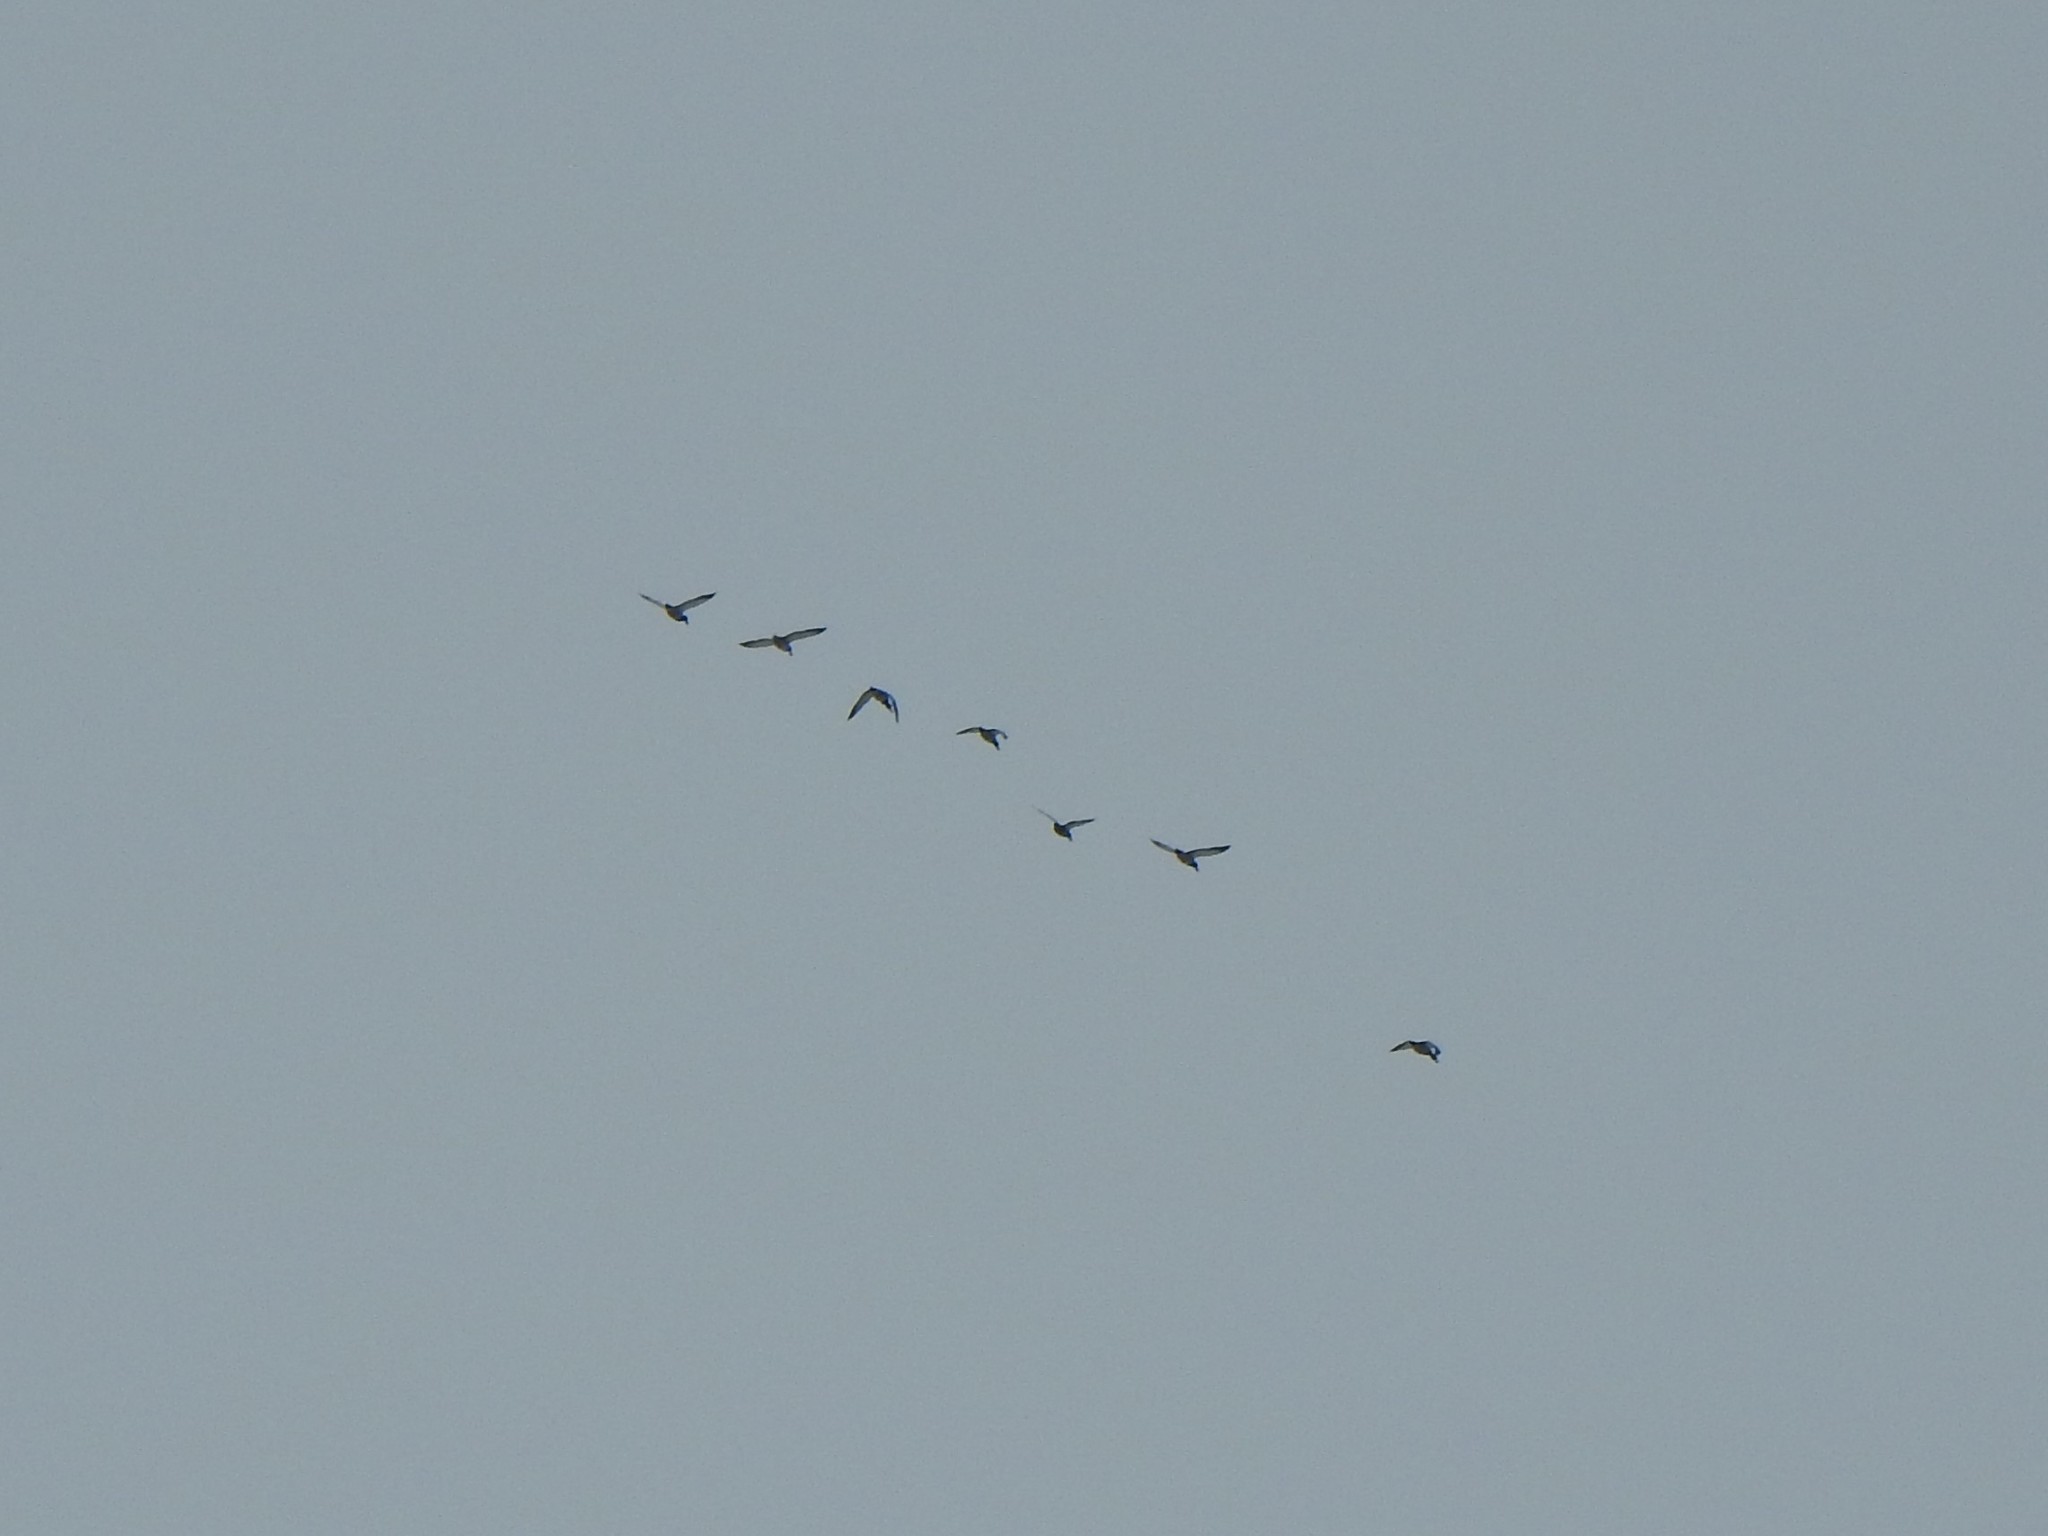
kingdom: Animalia
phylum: Chordata
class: Aves
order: Anseriformes
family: Anatidae
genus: Anas
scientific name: Anas platyrhynchos
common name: Mallard
